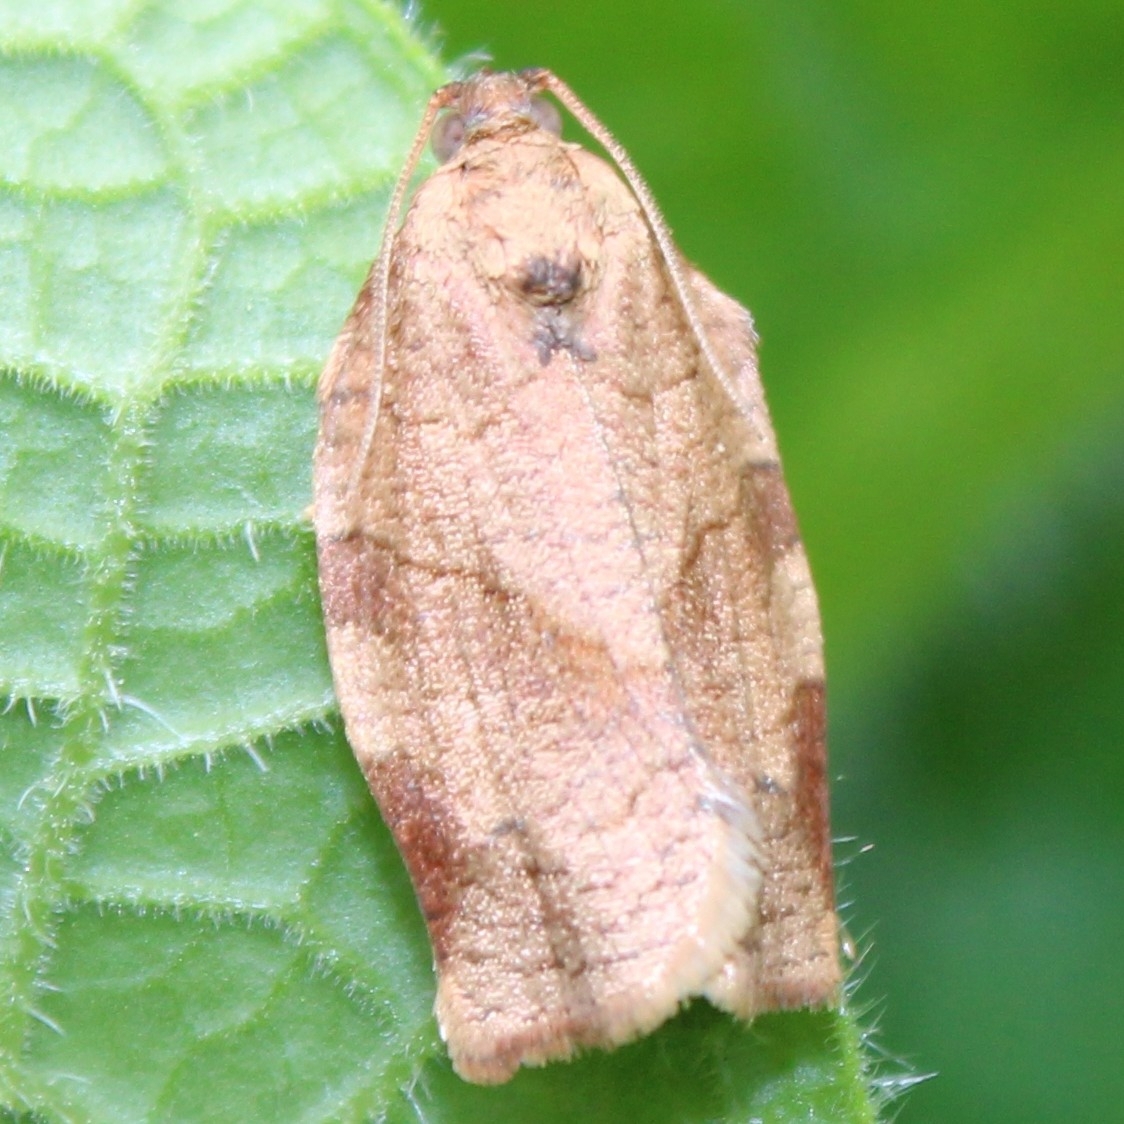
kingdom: Animalia
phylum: Arthropoda
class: Insecta
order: Lepidoptera
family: Tortricidae
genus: Choristoneura
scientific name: Choristoneura rosaceana
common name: Oblique-banded leafroller moth
